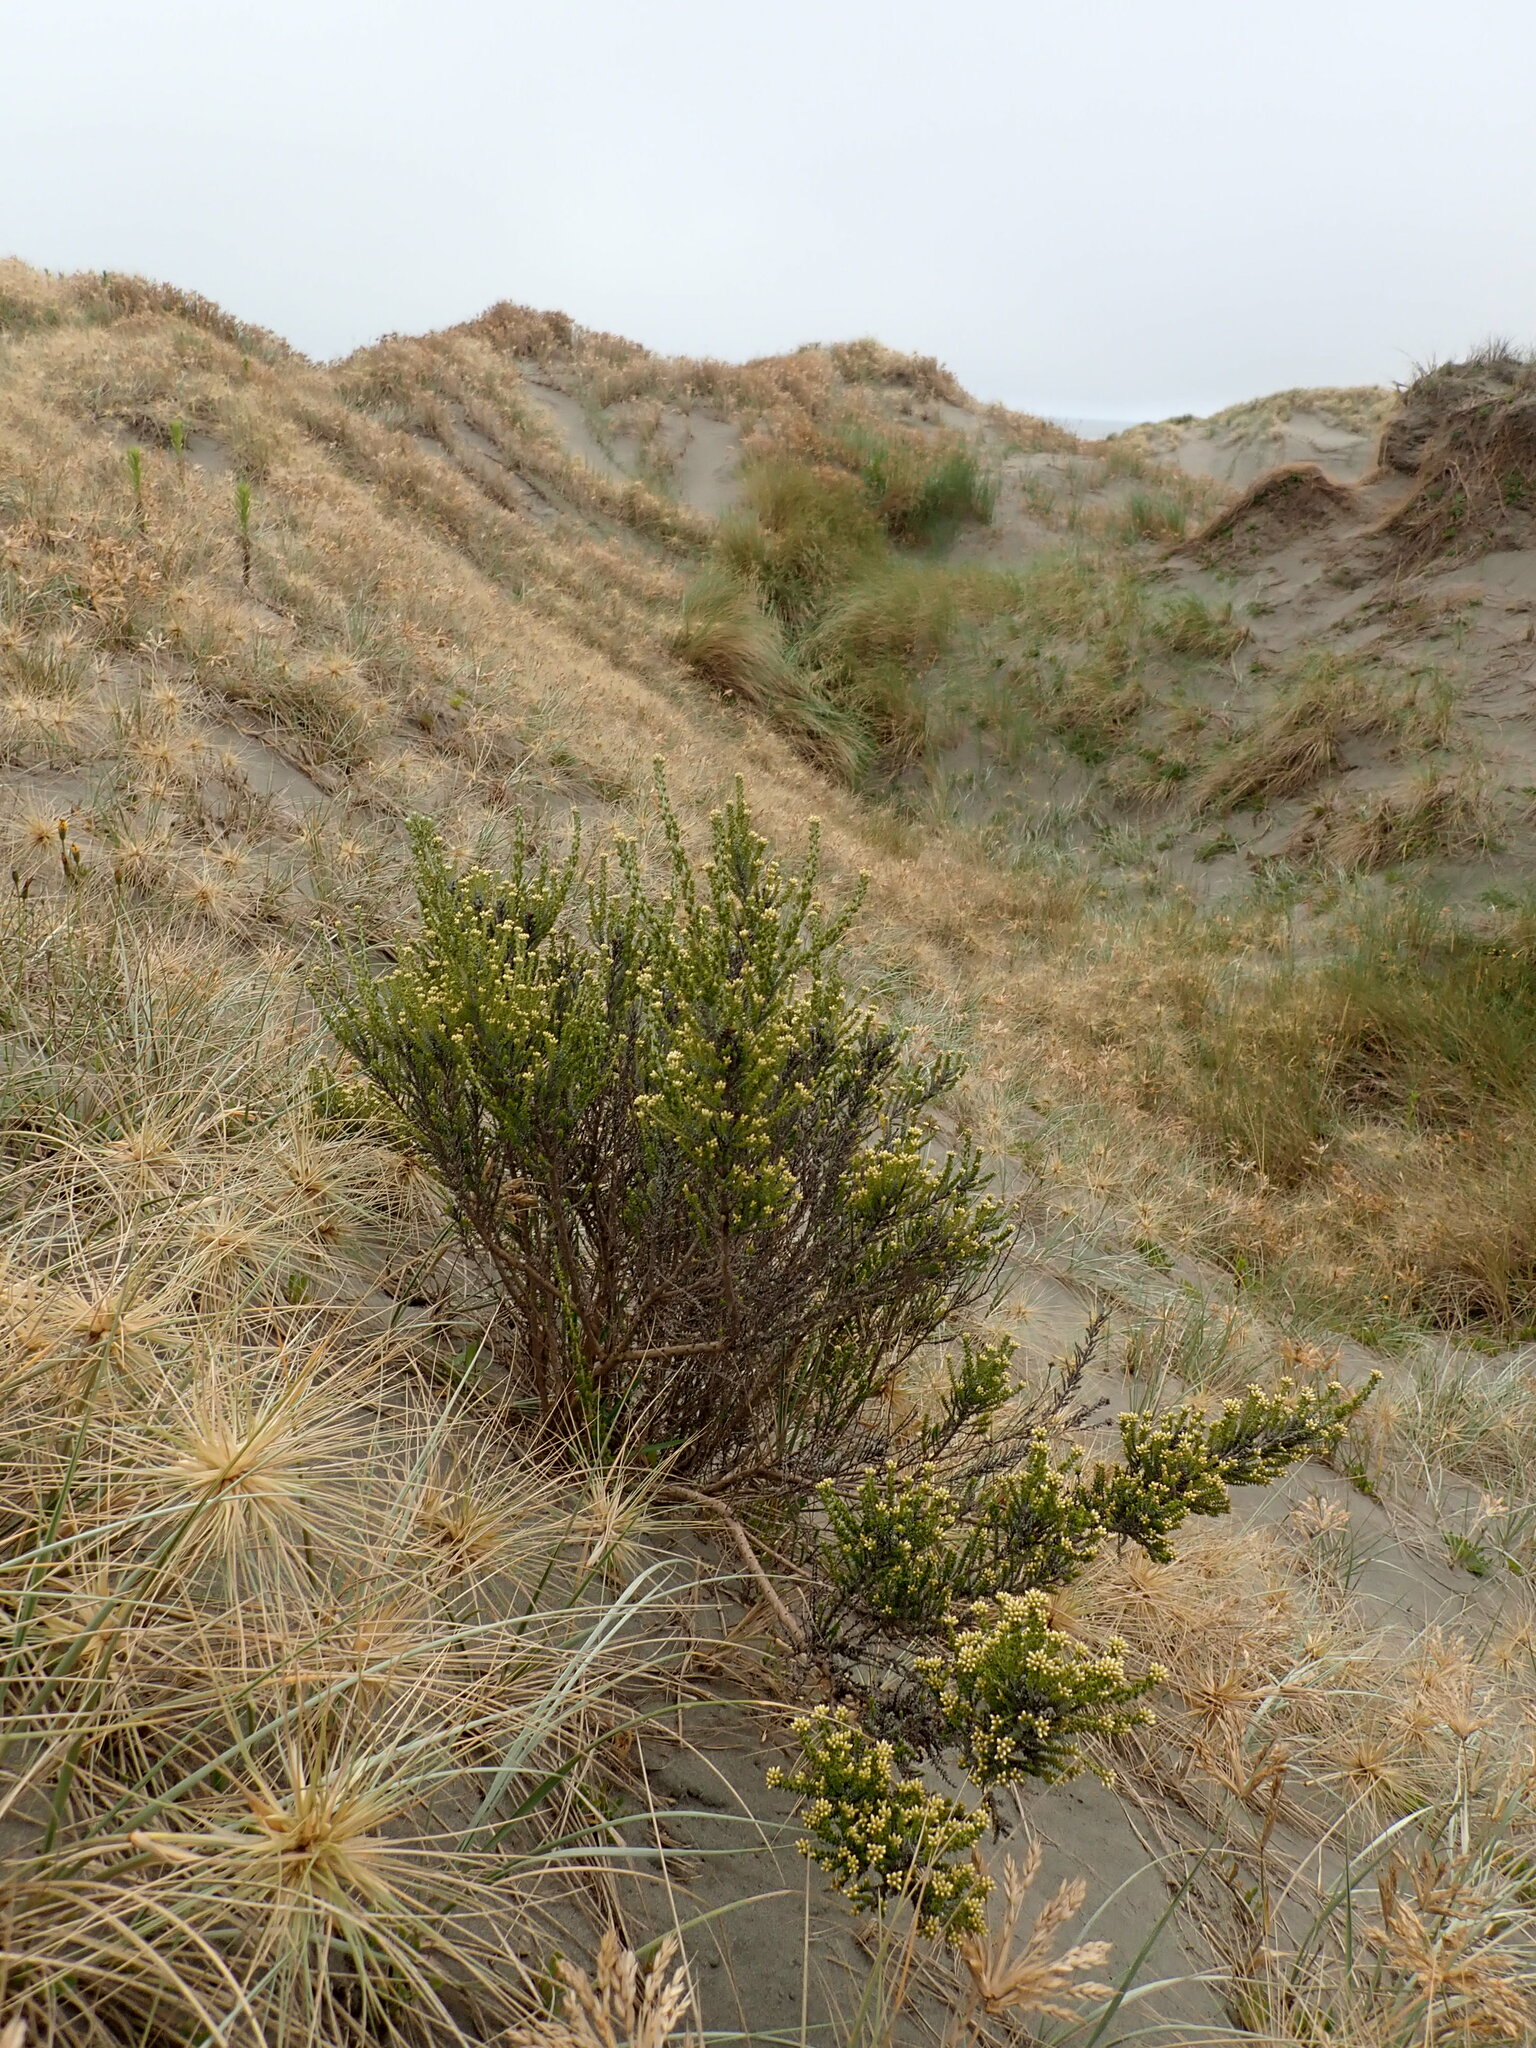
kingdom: Plantae
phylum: Tracheophyta
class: Magnoliopsida
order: Asterales
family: Asteraceae
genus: Ozothamnus
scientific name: Ozothamnus leptophyllus
